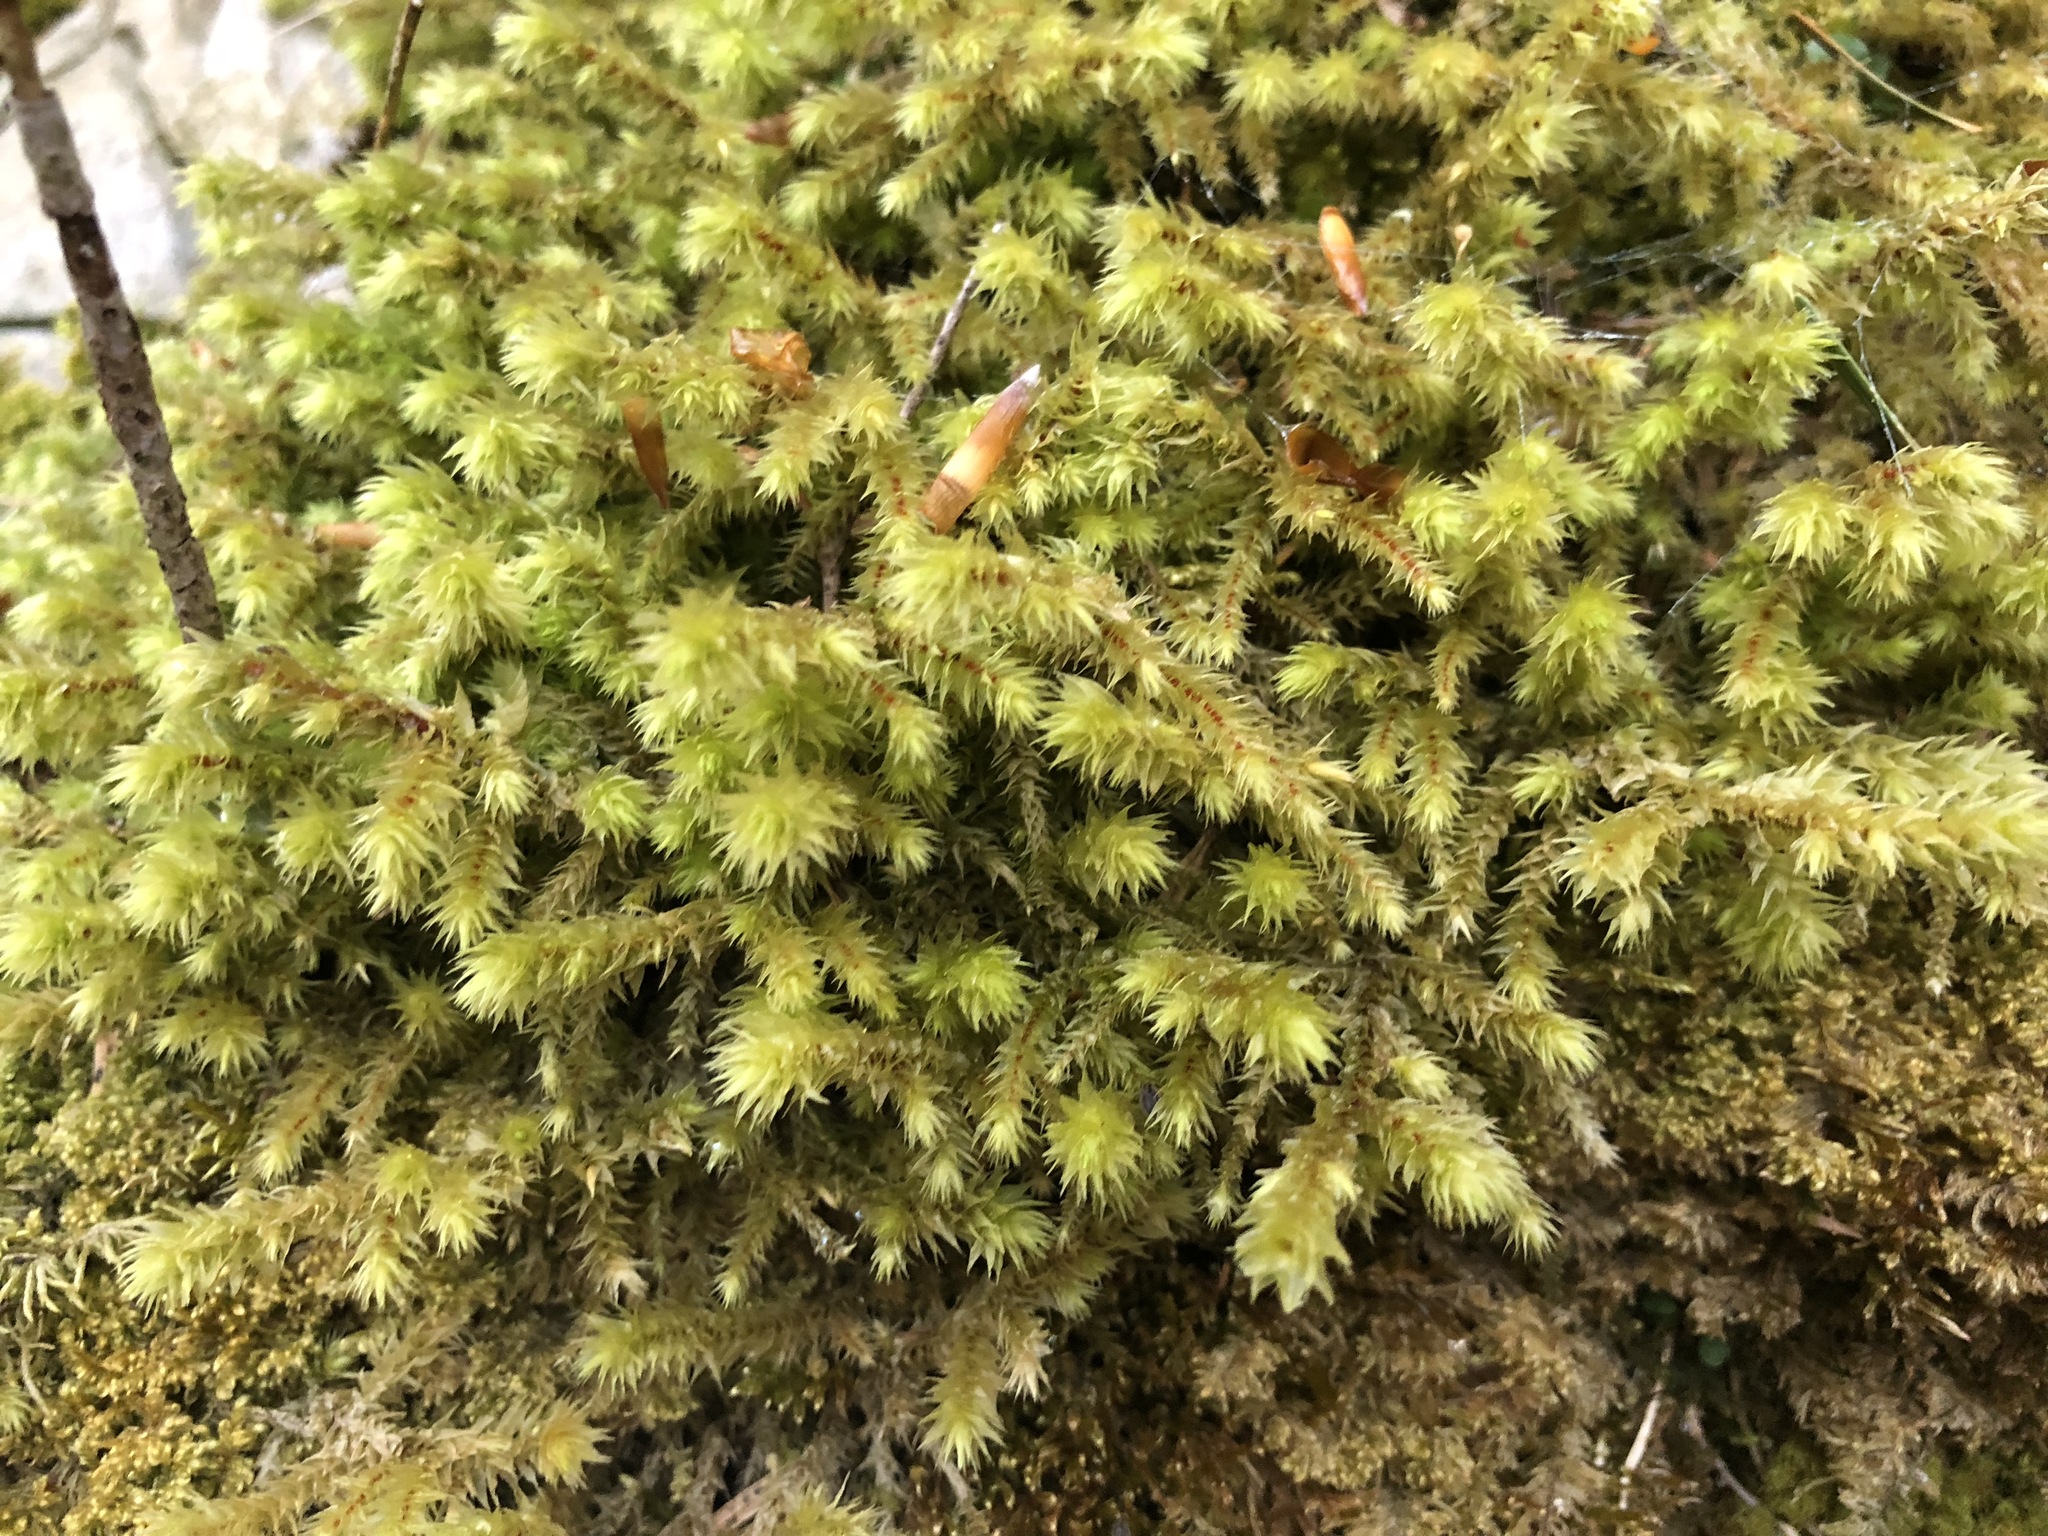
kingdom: Plantae
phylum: Bryophyta
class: Bryopsida
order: Hypnales
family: Hylocomiaceae
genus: Hylocomiadelphus
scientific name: Hylocomiadelphus triquetrus
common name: Rough goose neck moss
